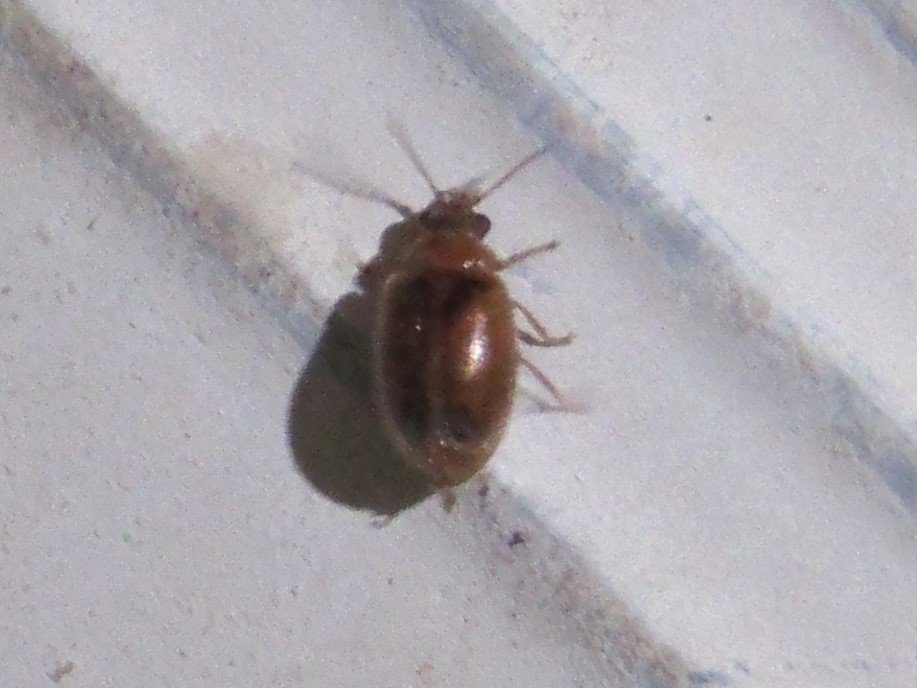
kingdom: Animalia
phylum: Arthropoda
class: Insecta
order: Coleoptera
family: Scirtidae
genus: Contacyphon
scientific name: Contacyphon
